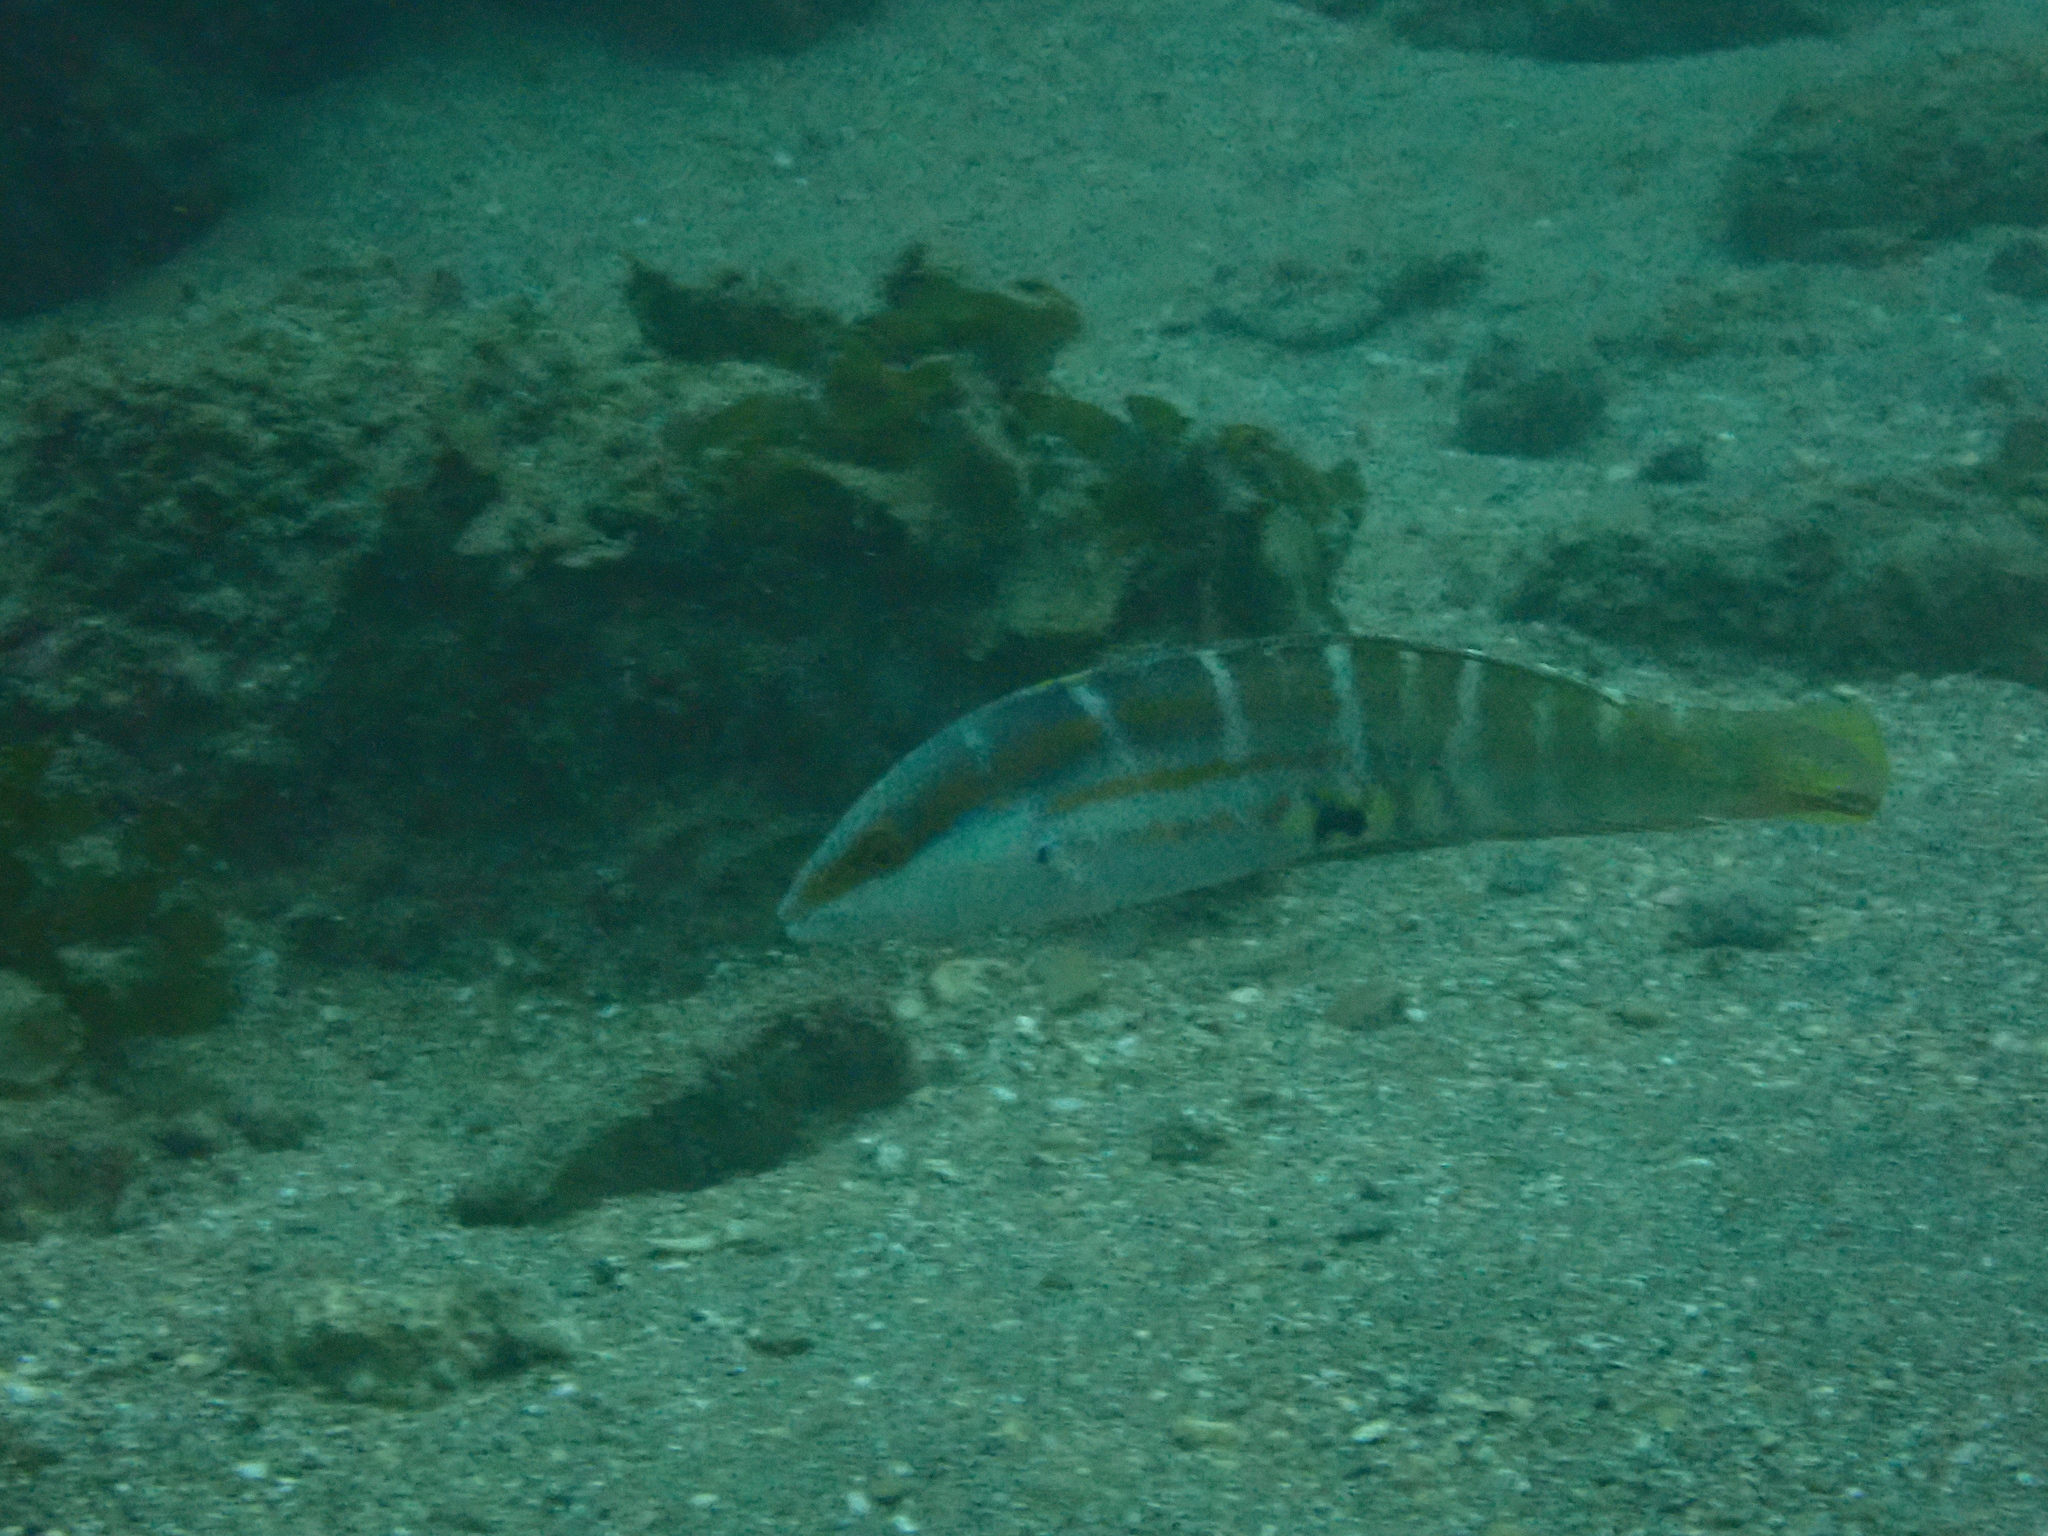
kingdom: Animalia
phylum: Chordata
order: Perciformes
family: Labridae
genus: Coris
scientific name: Coris dorsomacula
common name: Pale-barred coris
